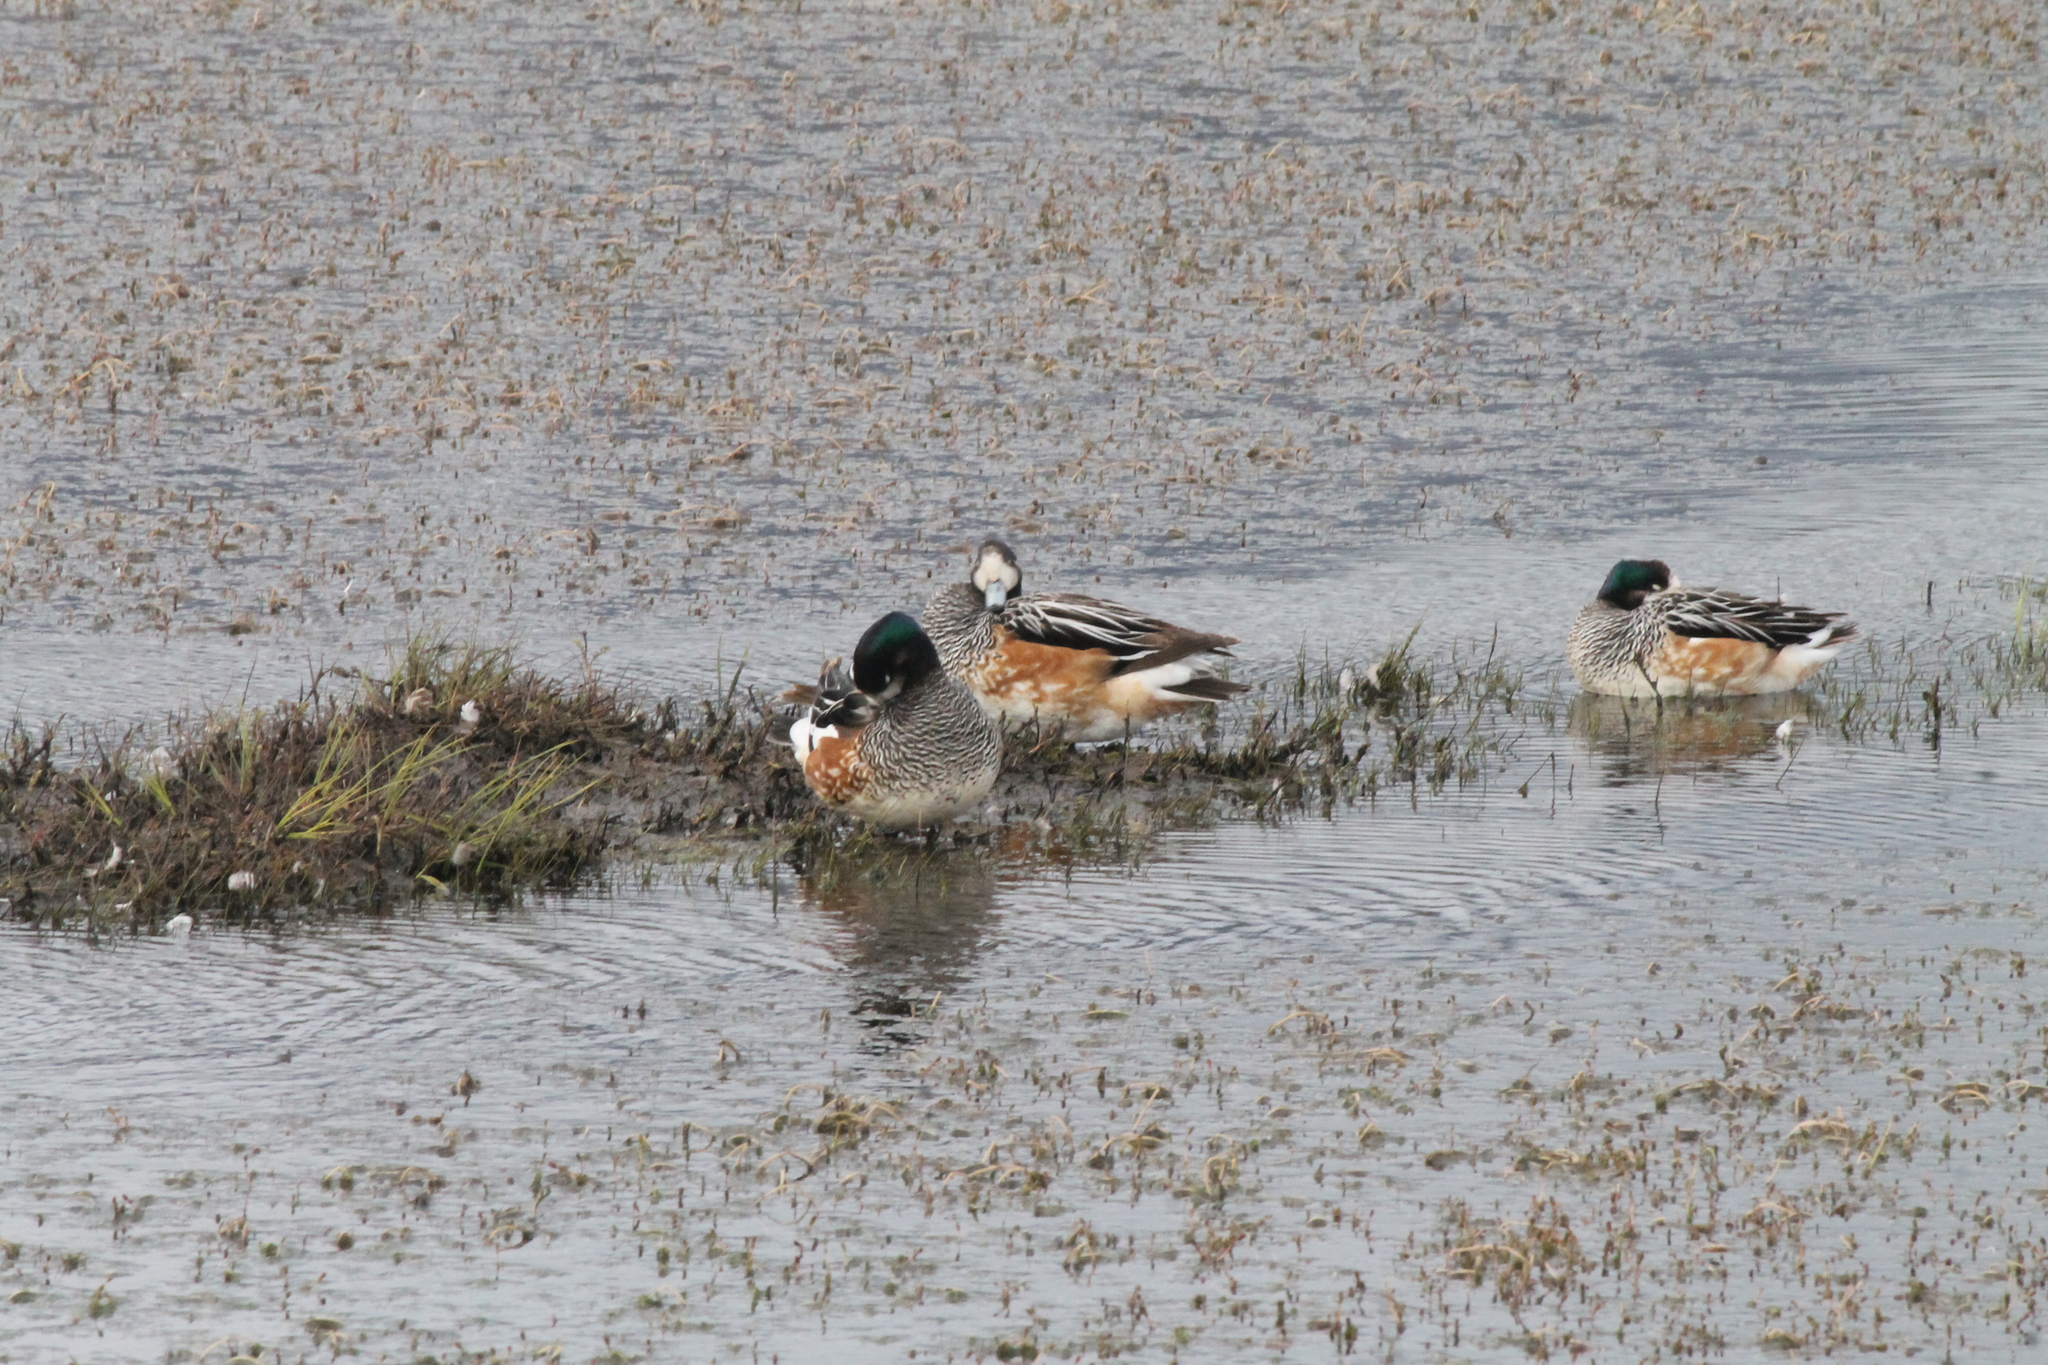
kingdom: Animalia
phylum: Chordata
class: Aves
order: Anseriformes
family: Anatidae
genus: Mareca
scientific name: Mareca sibilatrix
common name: Chiloe wigeon
